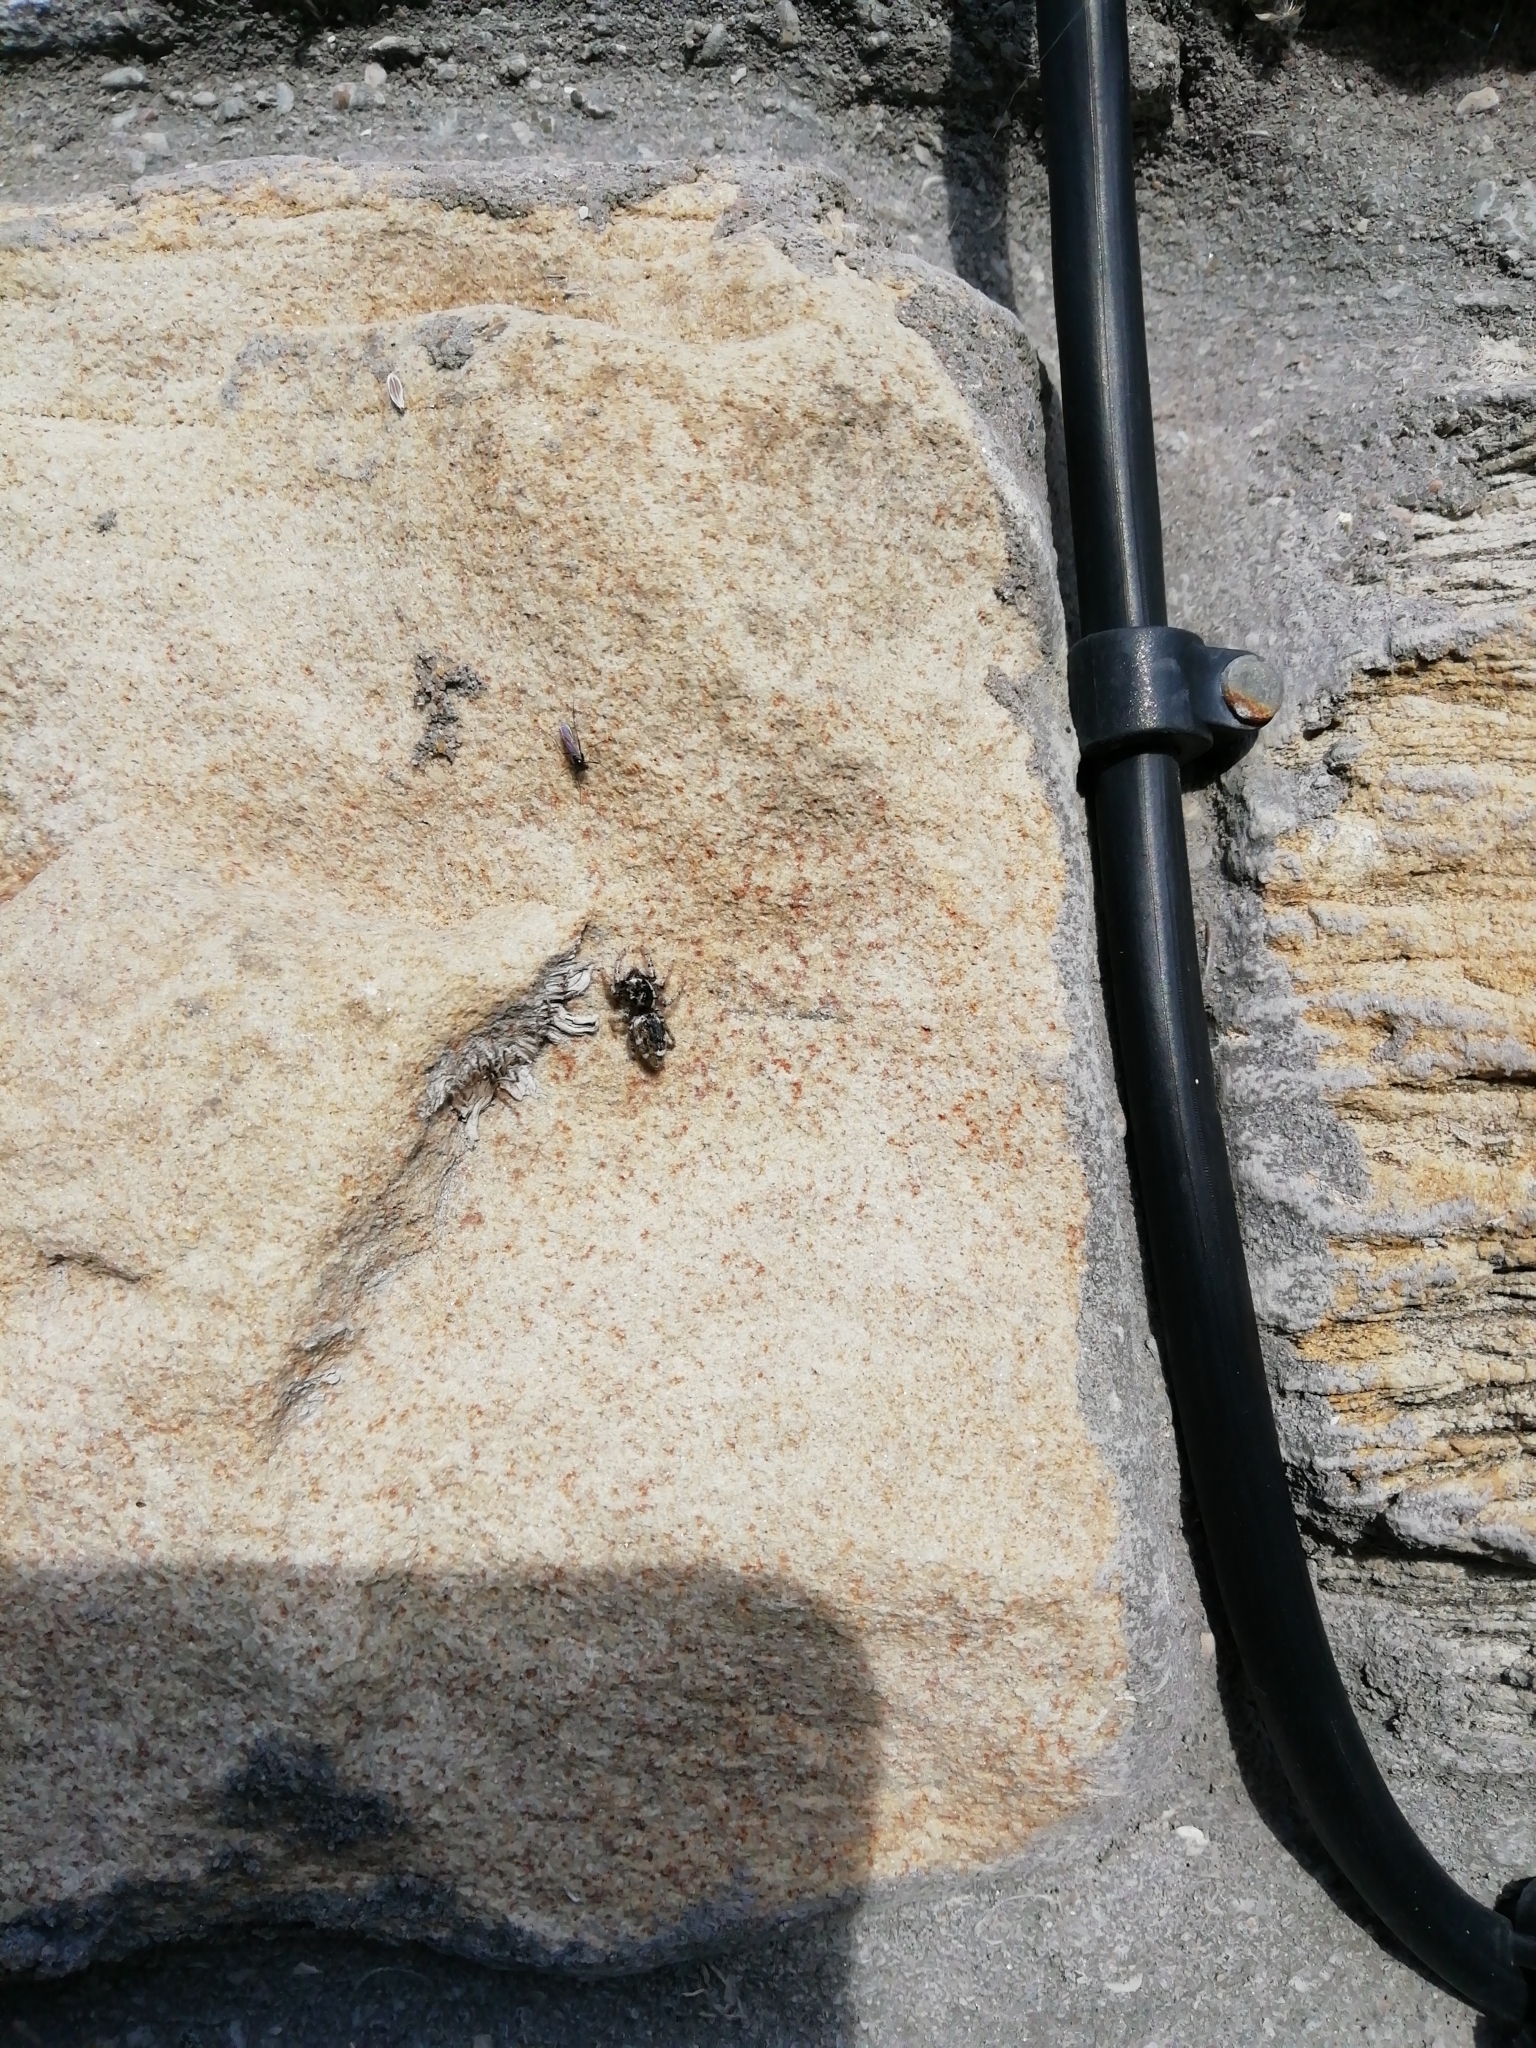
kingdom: Animalia
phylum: Arthropoda
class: Arachnida
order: Araneae
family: Salticidae
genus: Salticus
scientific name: Salticus scenicus
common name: Zebra jumper
